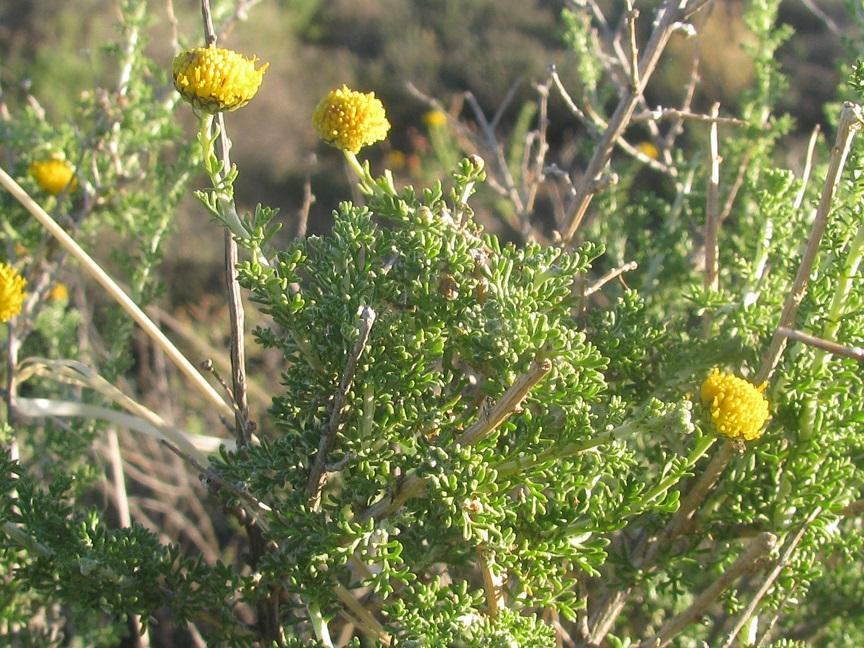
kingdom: Plantae
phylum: Tracheophyta
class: Magnoliopsida
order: Asterales
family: Asteraceae
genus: Pentzia
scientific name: Pentzia spinescens
